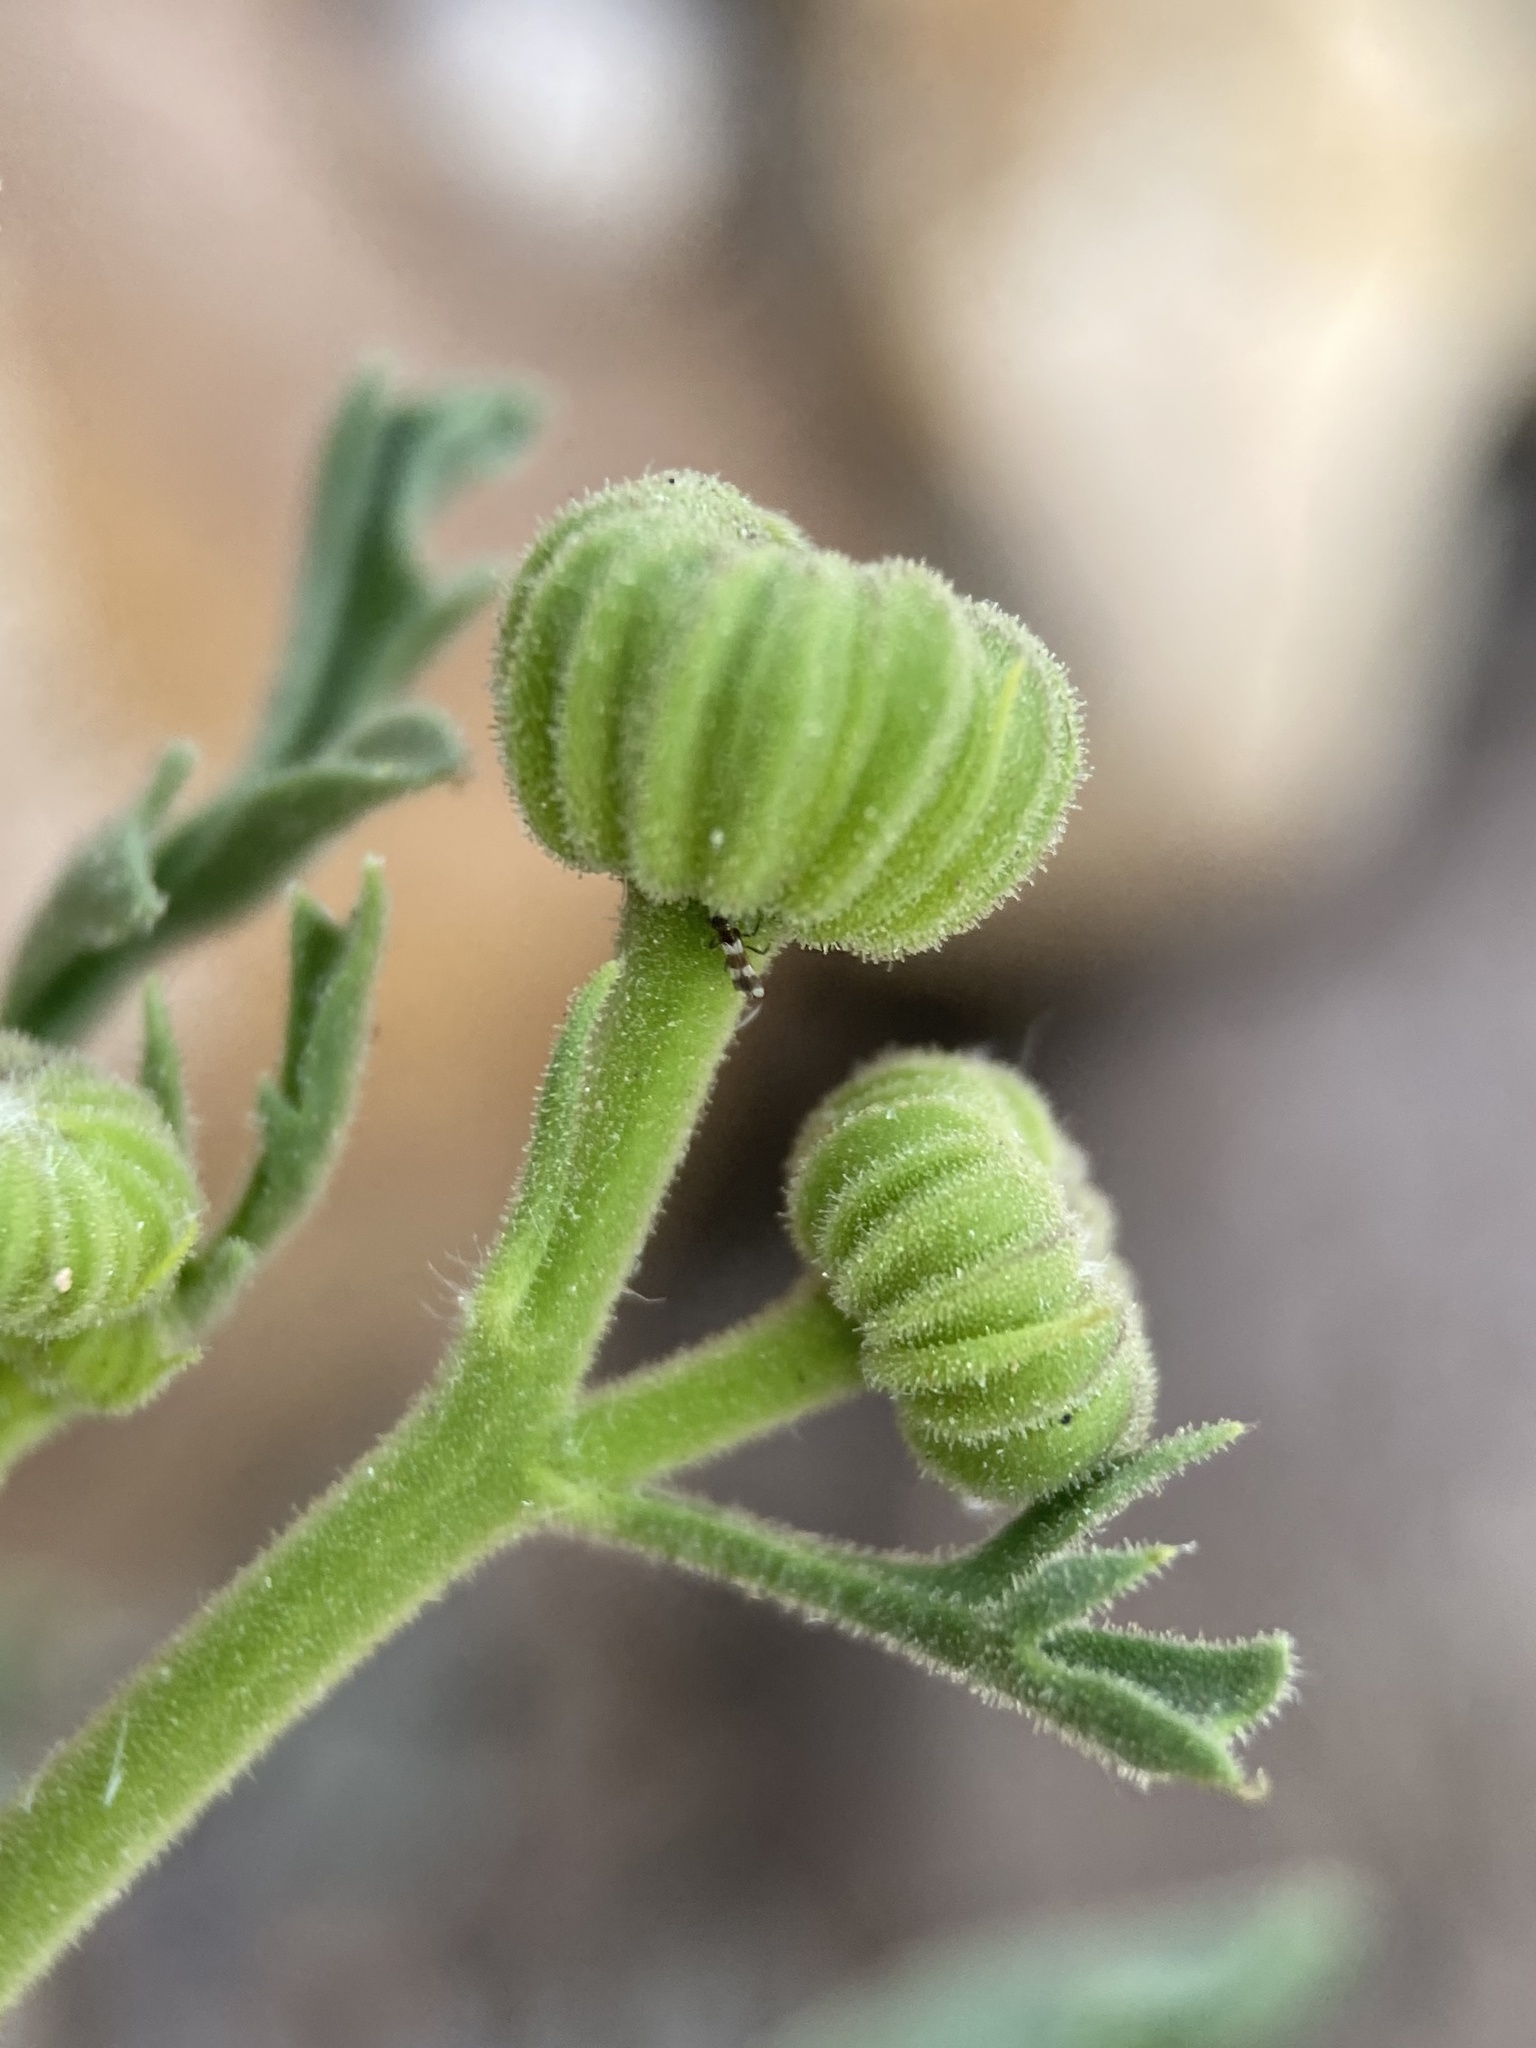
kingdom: Plantae
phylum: Tracheophyta
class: Magnoliopsida
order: Asterales
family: Asteraceae
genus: Laphamia
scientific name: Laphamia vaseyi
